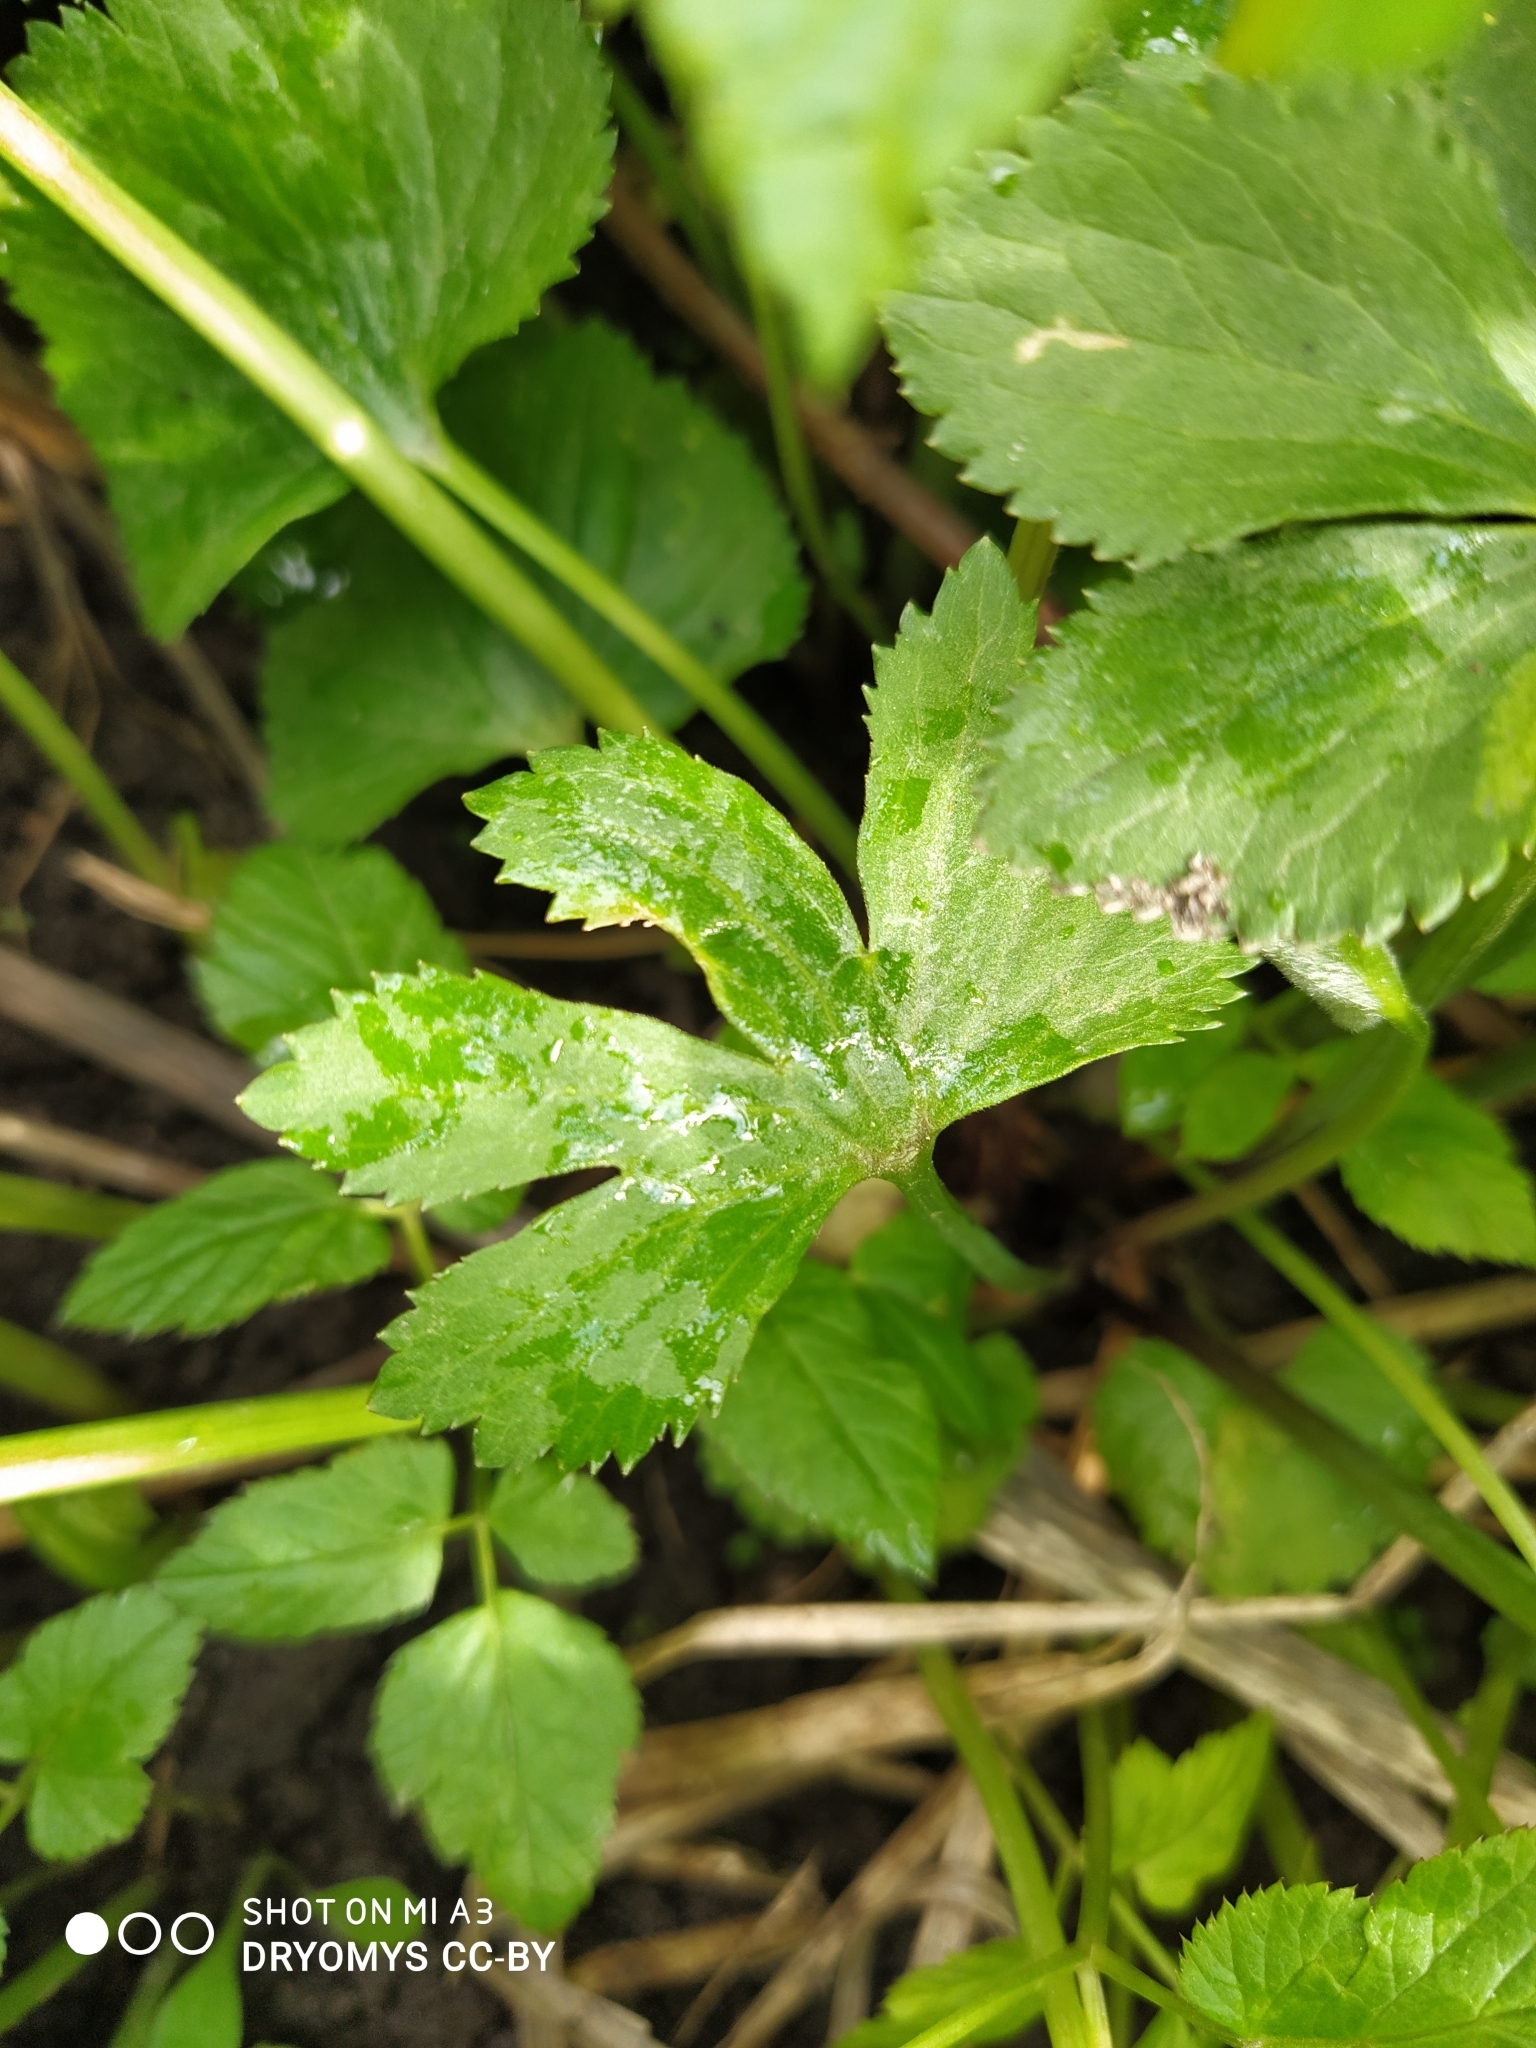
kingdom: Plantae
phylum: Tracheophyta
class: Magnoliopsida
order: Ranunculales
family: Ranunculaceae
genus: Ranunculus
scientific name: Ranunculus cassubicus
